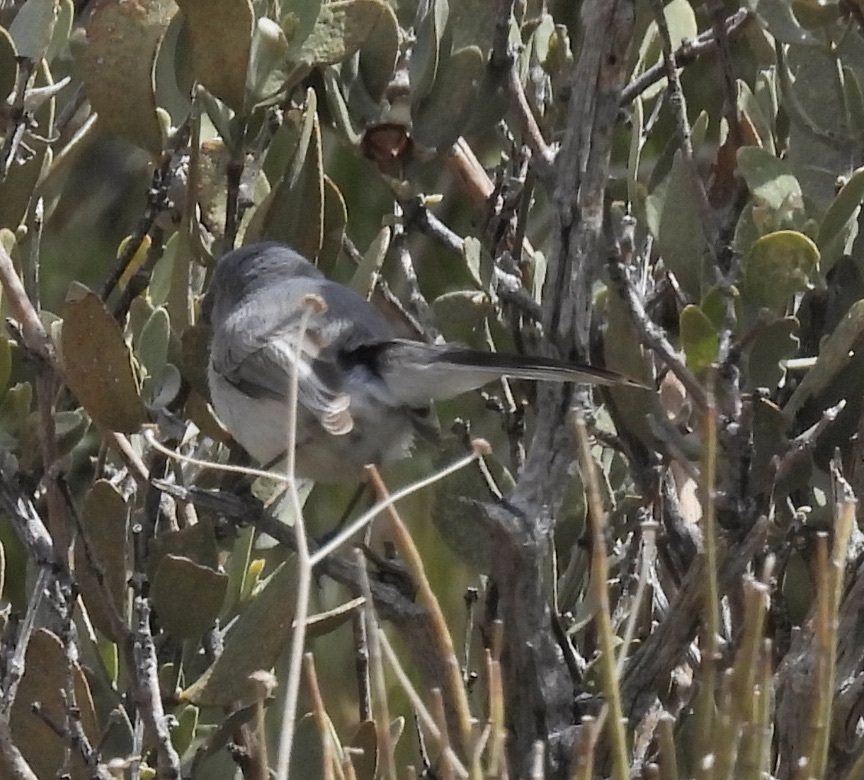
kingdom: Animalia
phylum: Chordata
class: Aves
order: Passeriformes
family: Polioptilidae
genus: Polioptila
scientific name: Polioptila caerulea
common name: Blue-gray gnatcatcher
